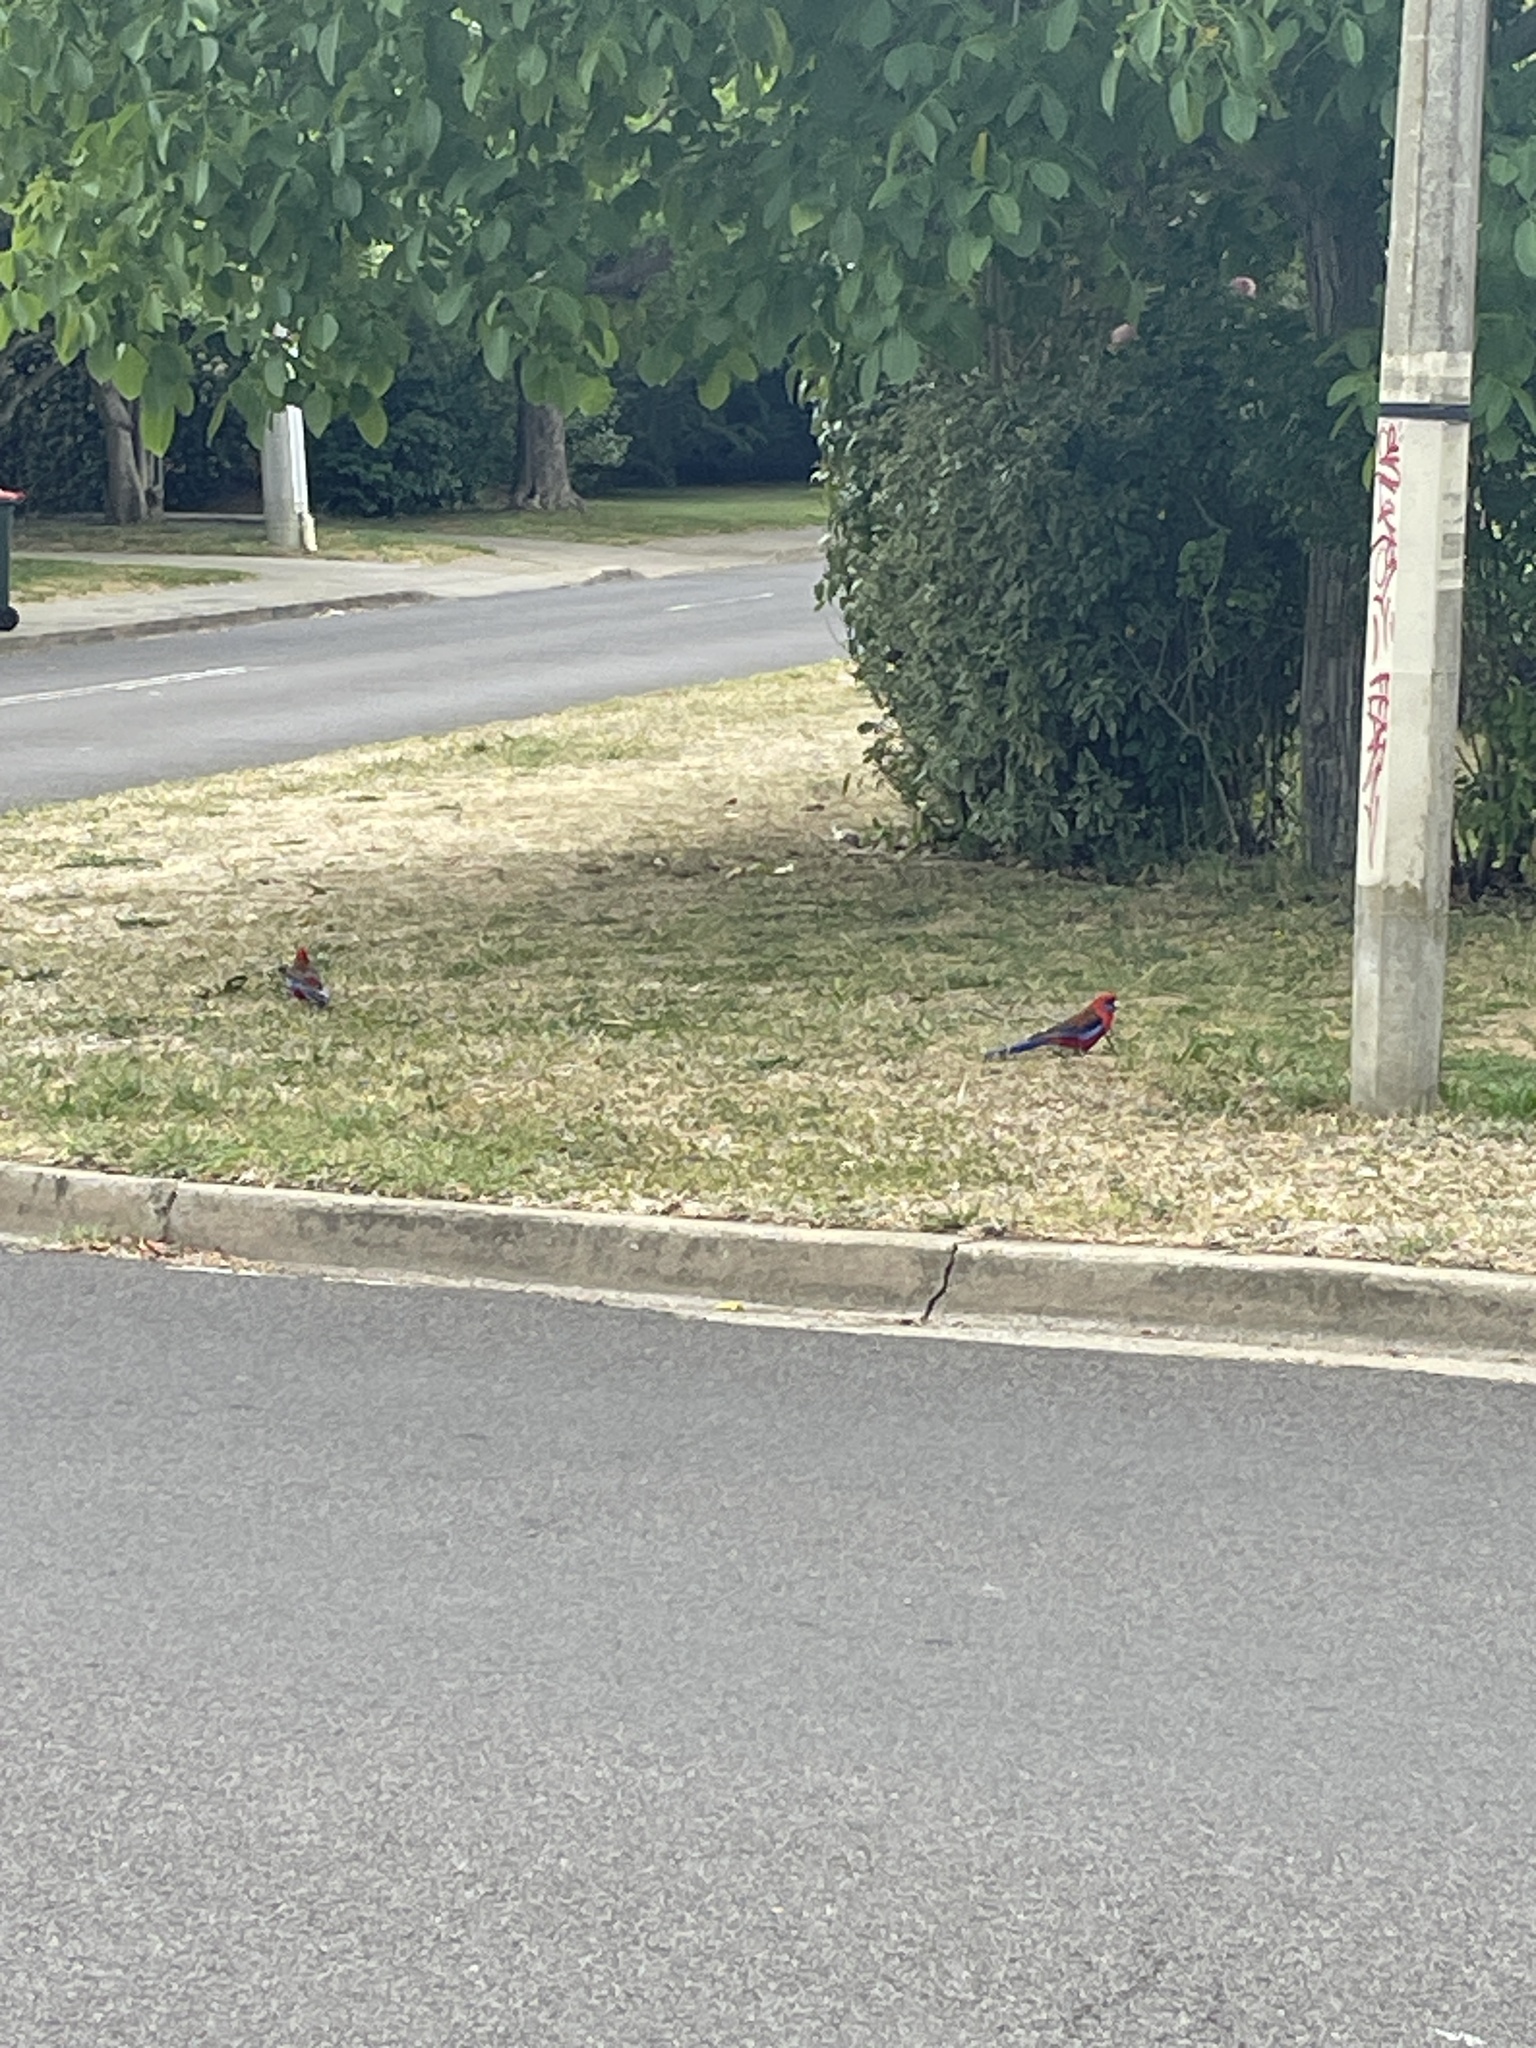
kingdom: Animalia
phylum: Chordata
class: Aves
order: Psittaciformes
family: Psittacidae
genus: Platycercus
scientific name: Platycercus elegans
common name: Crimson rosella
